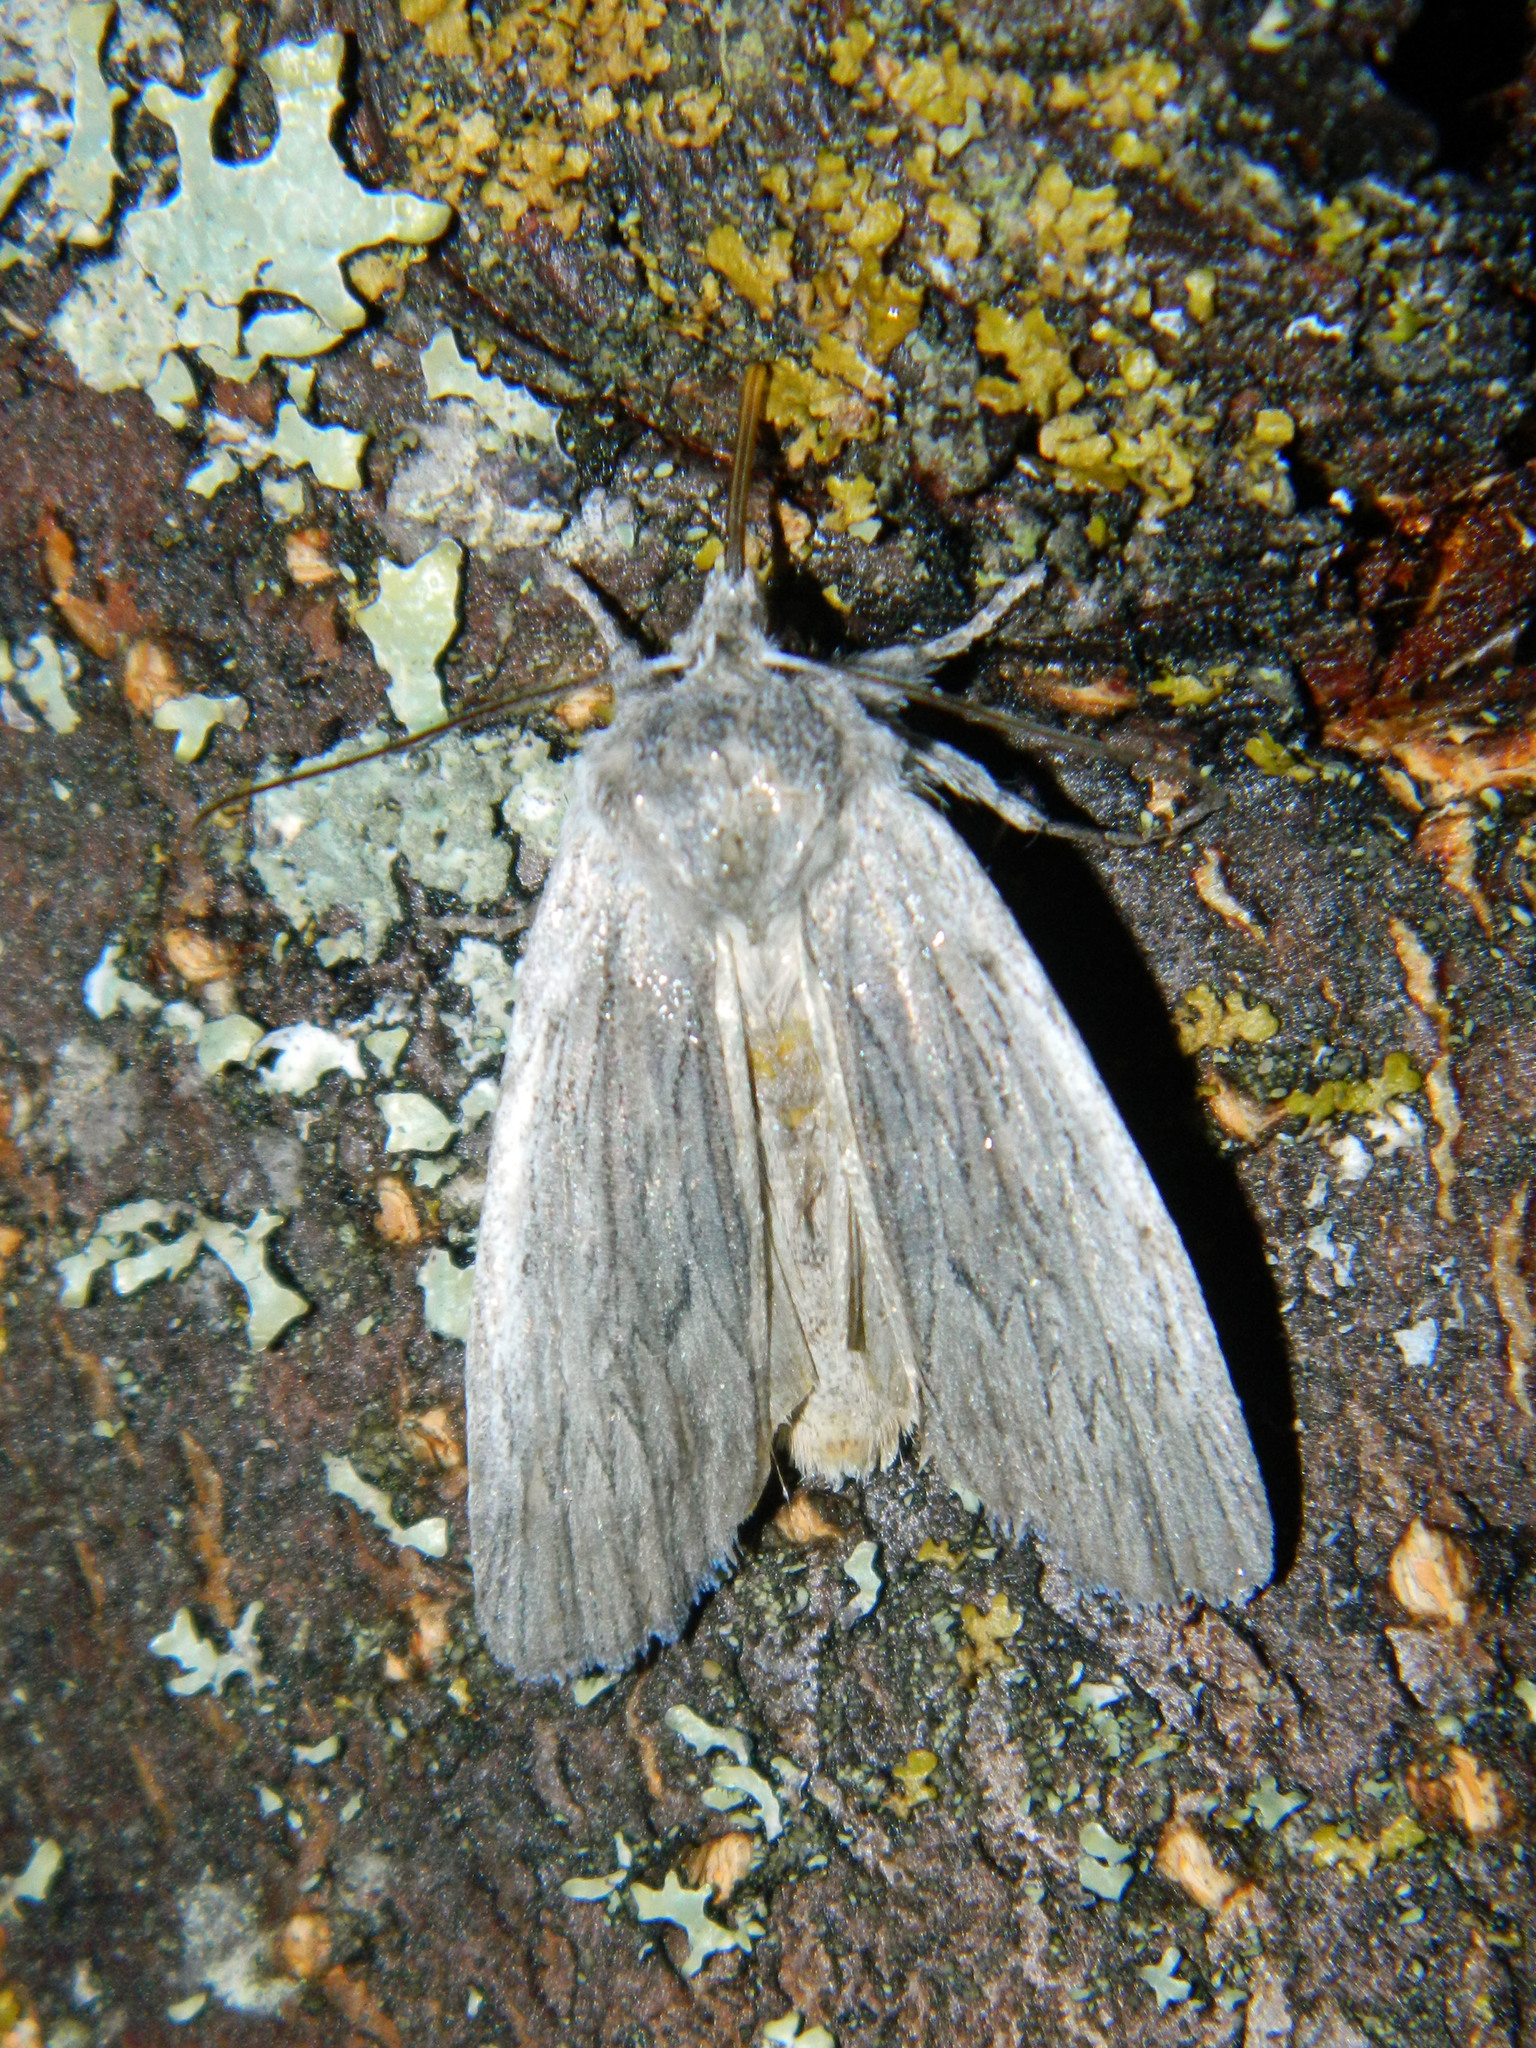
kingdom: Animalia
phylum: Arthropoda
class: Insecta
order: Lepidoptera
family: Noctuidae
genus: Lithophane
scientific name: Lithophane fagina
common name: Hoary pinion moth
